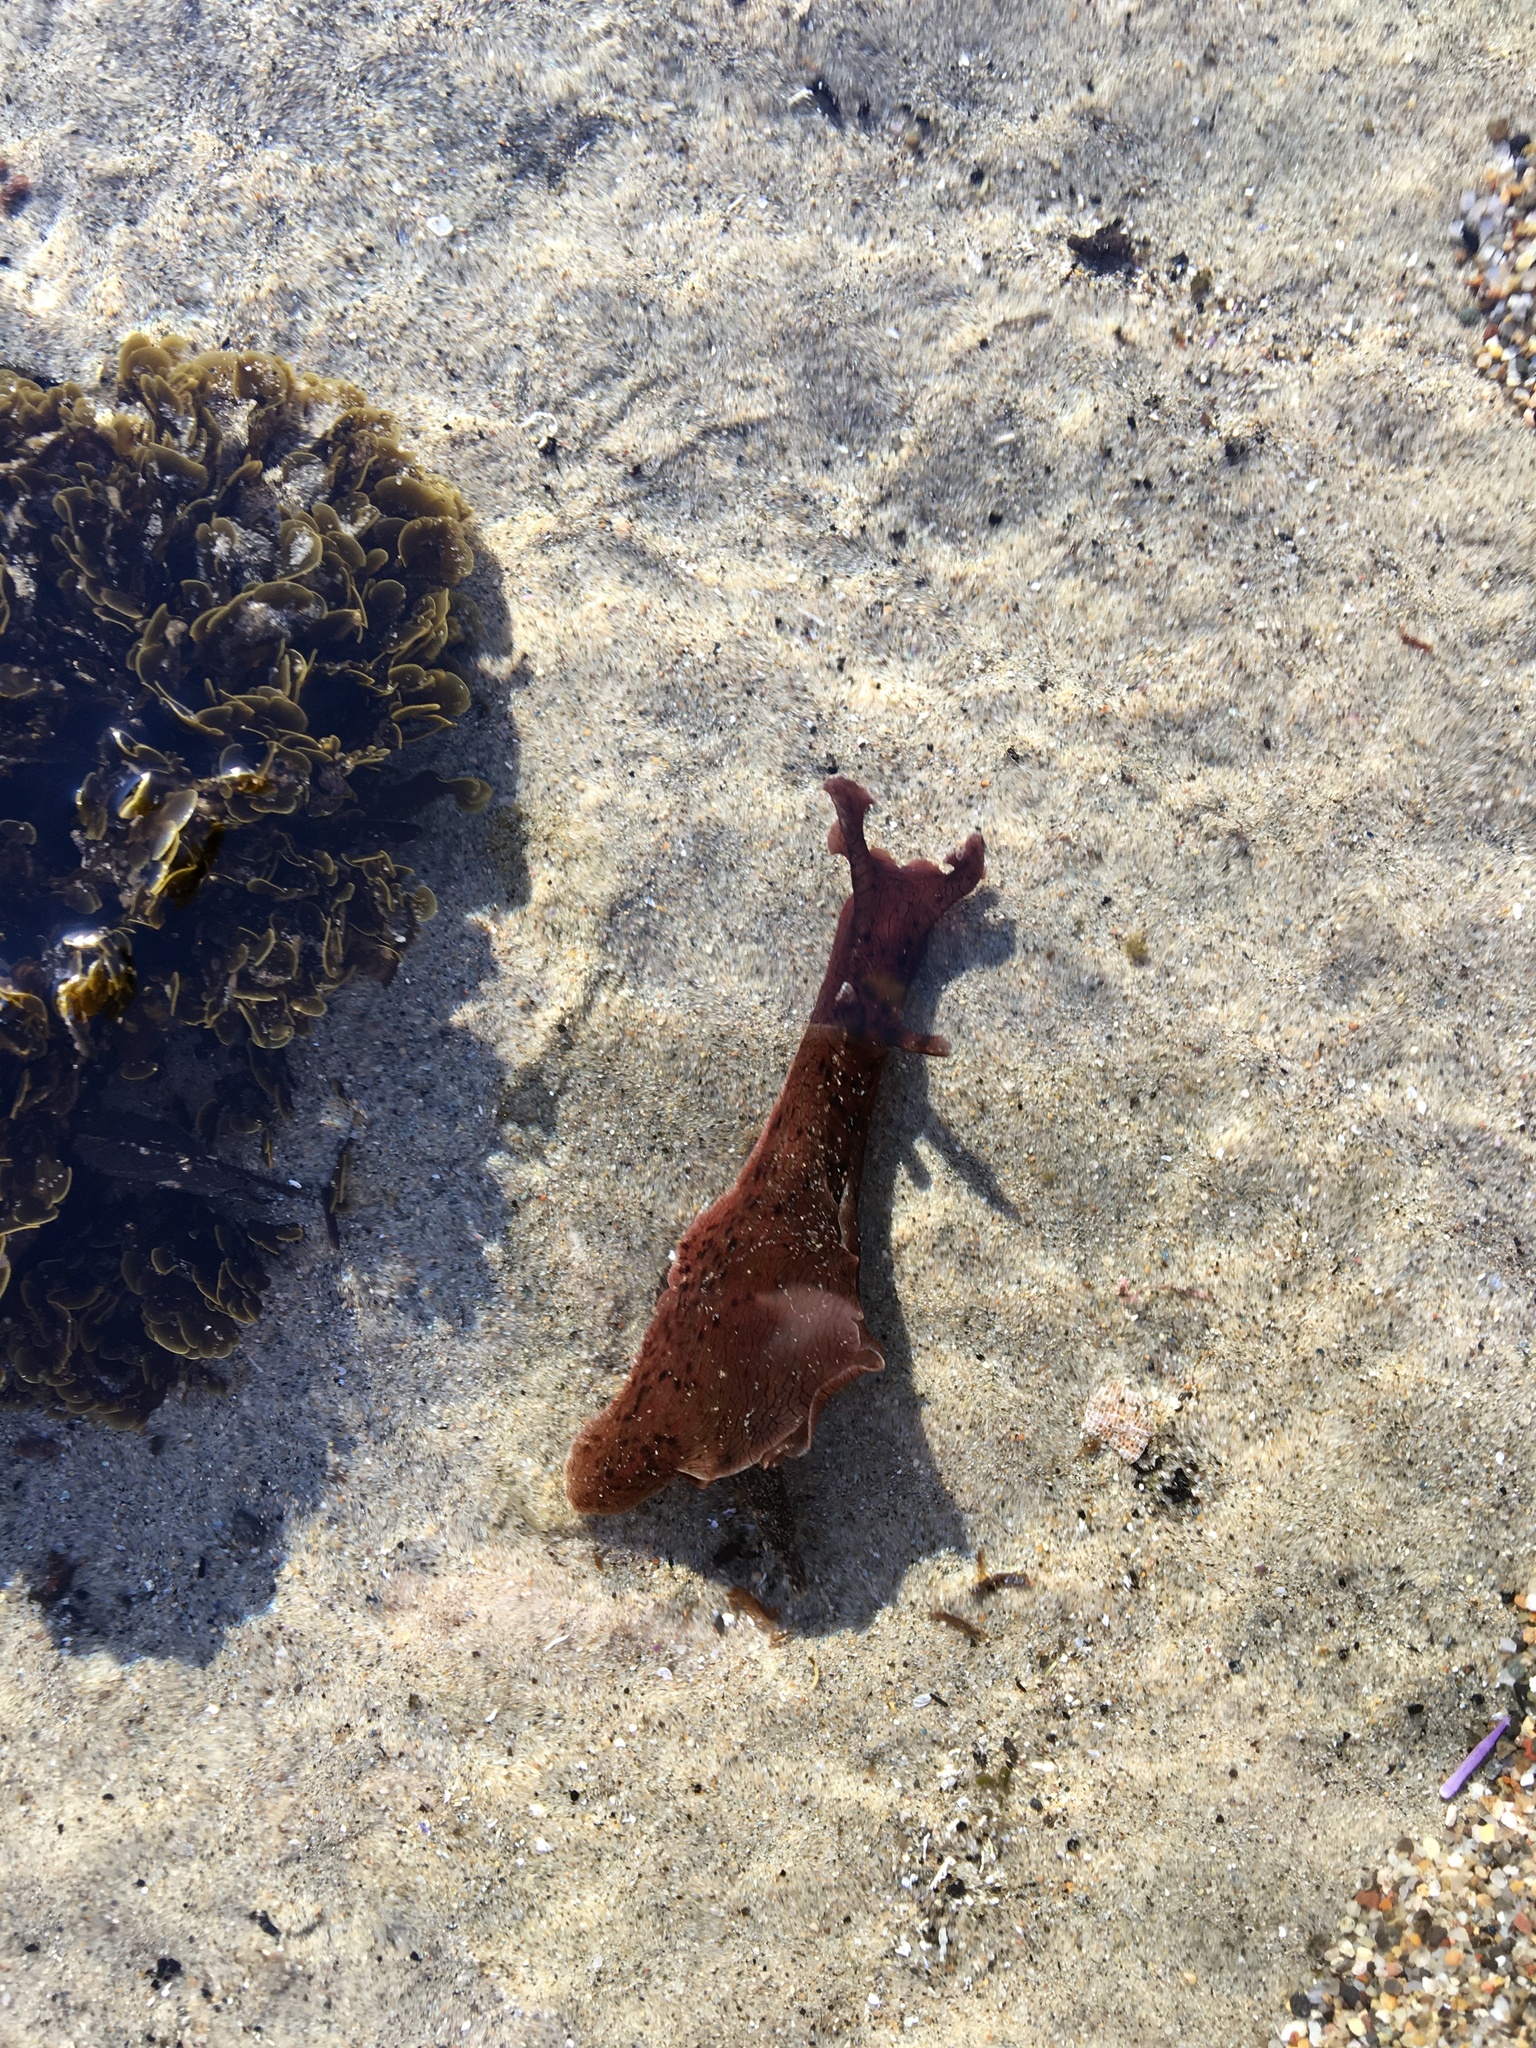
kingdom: Animalia
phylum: Mollusca
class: Gastropoda
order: Aplysiida
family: Aplysiidae
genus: Aplysia
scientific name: Aplysia californica
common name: California seahare
